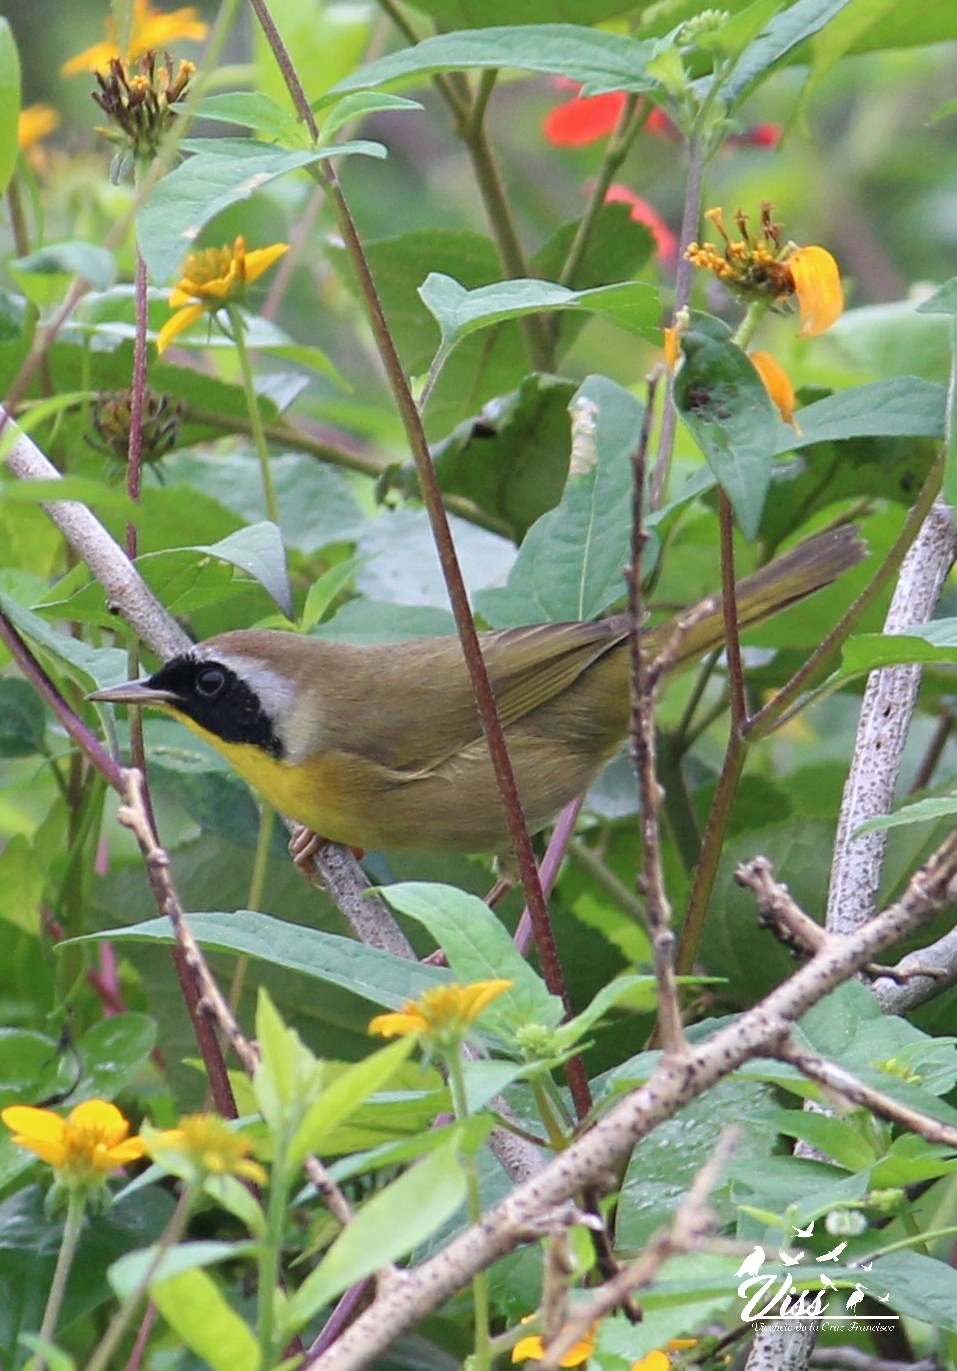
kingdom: Animalia
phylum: Chordata
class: Aves
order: Passeriformes
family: Parulidae
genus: Geothlypis
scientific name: Geothlypis trichas
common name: Common yellowthroat
